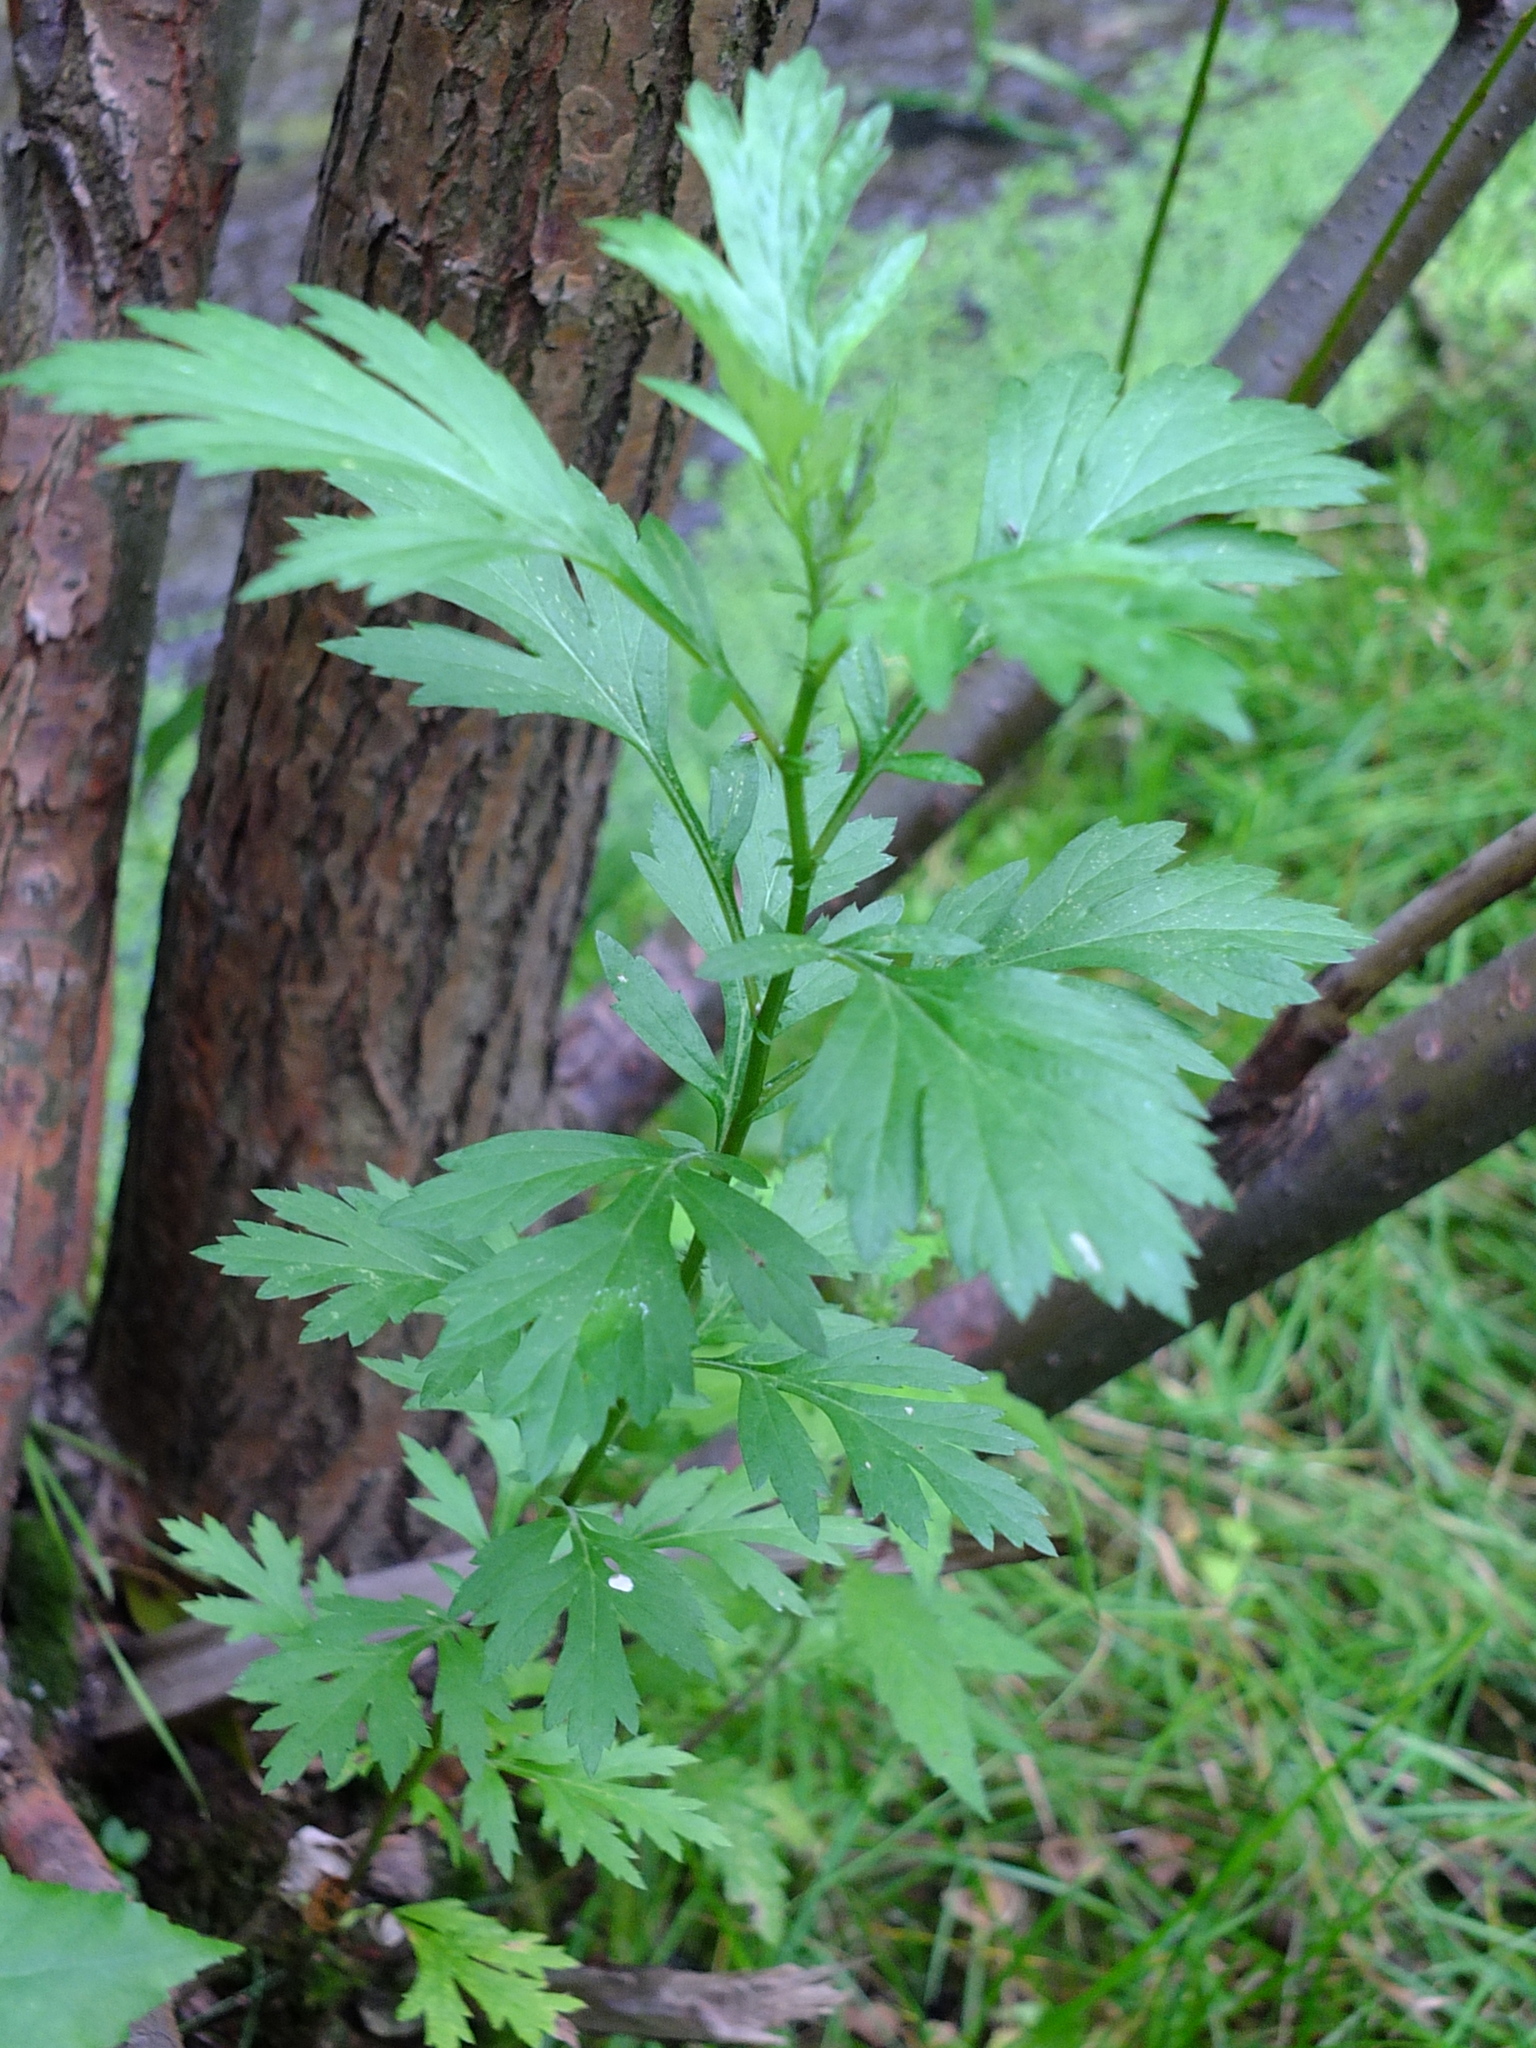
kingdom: Plantae
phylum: Tracheophyta
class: Magnoliopsida
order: Asterales
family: Asteraceae
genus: Artemisia
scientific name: Artemisia vulgaris
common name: Mugwort
